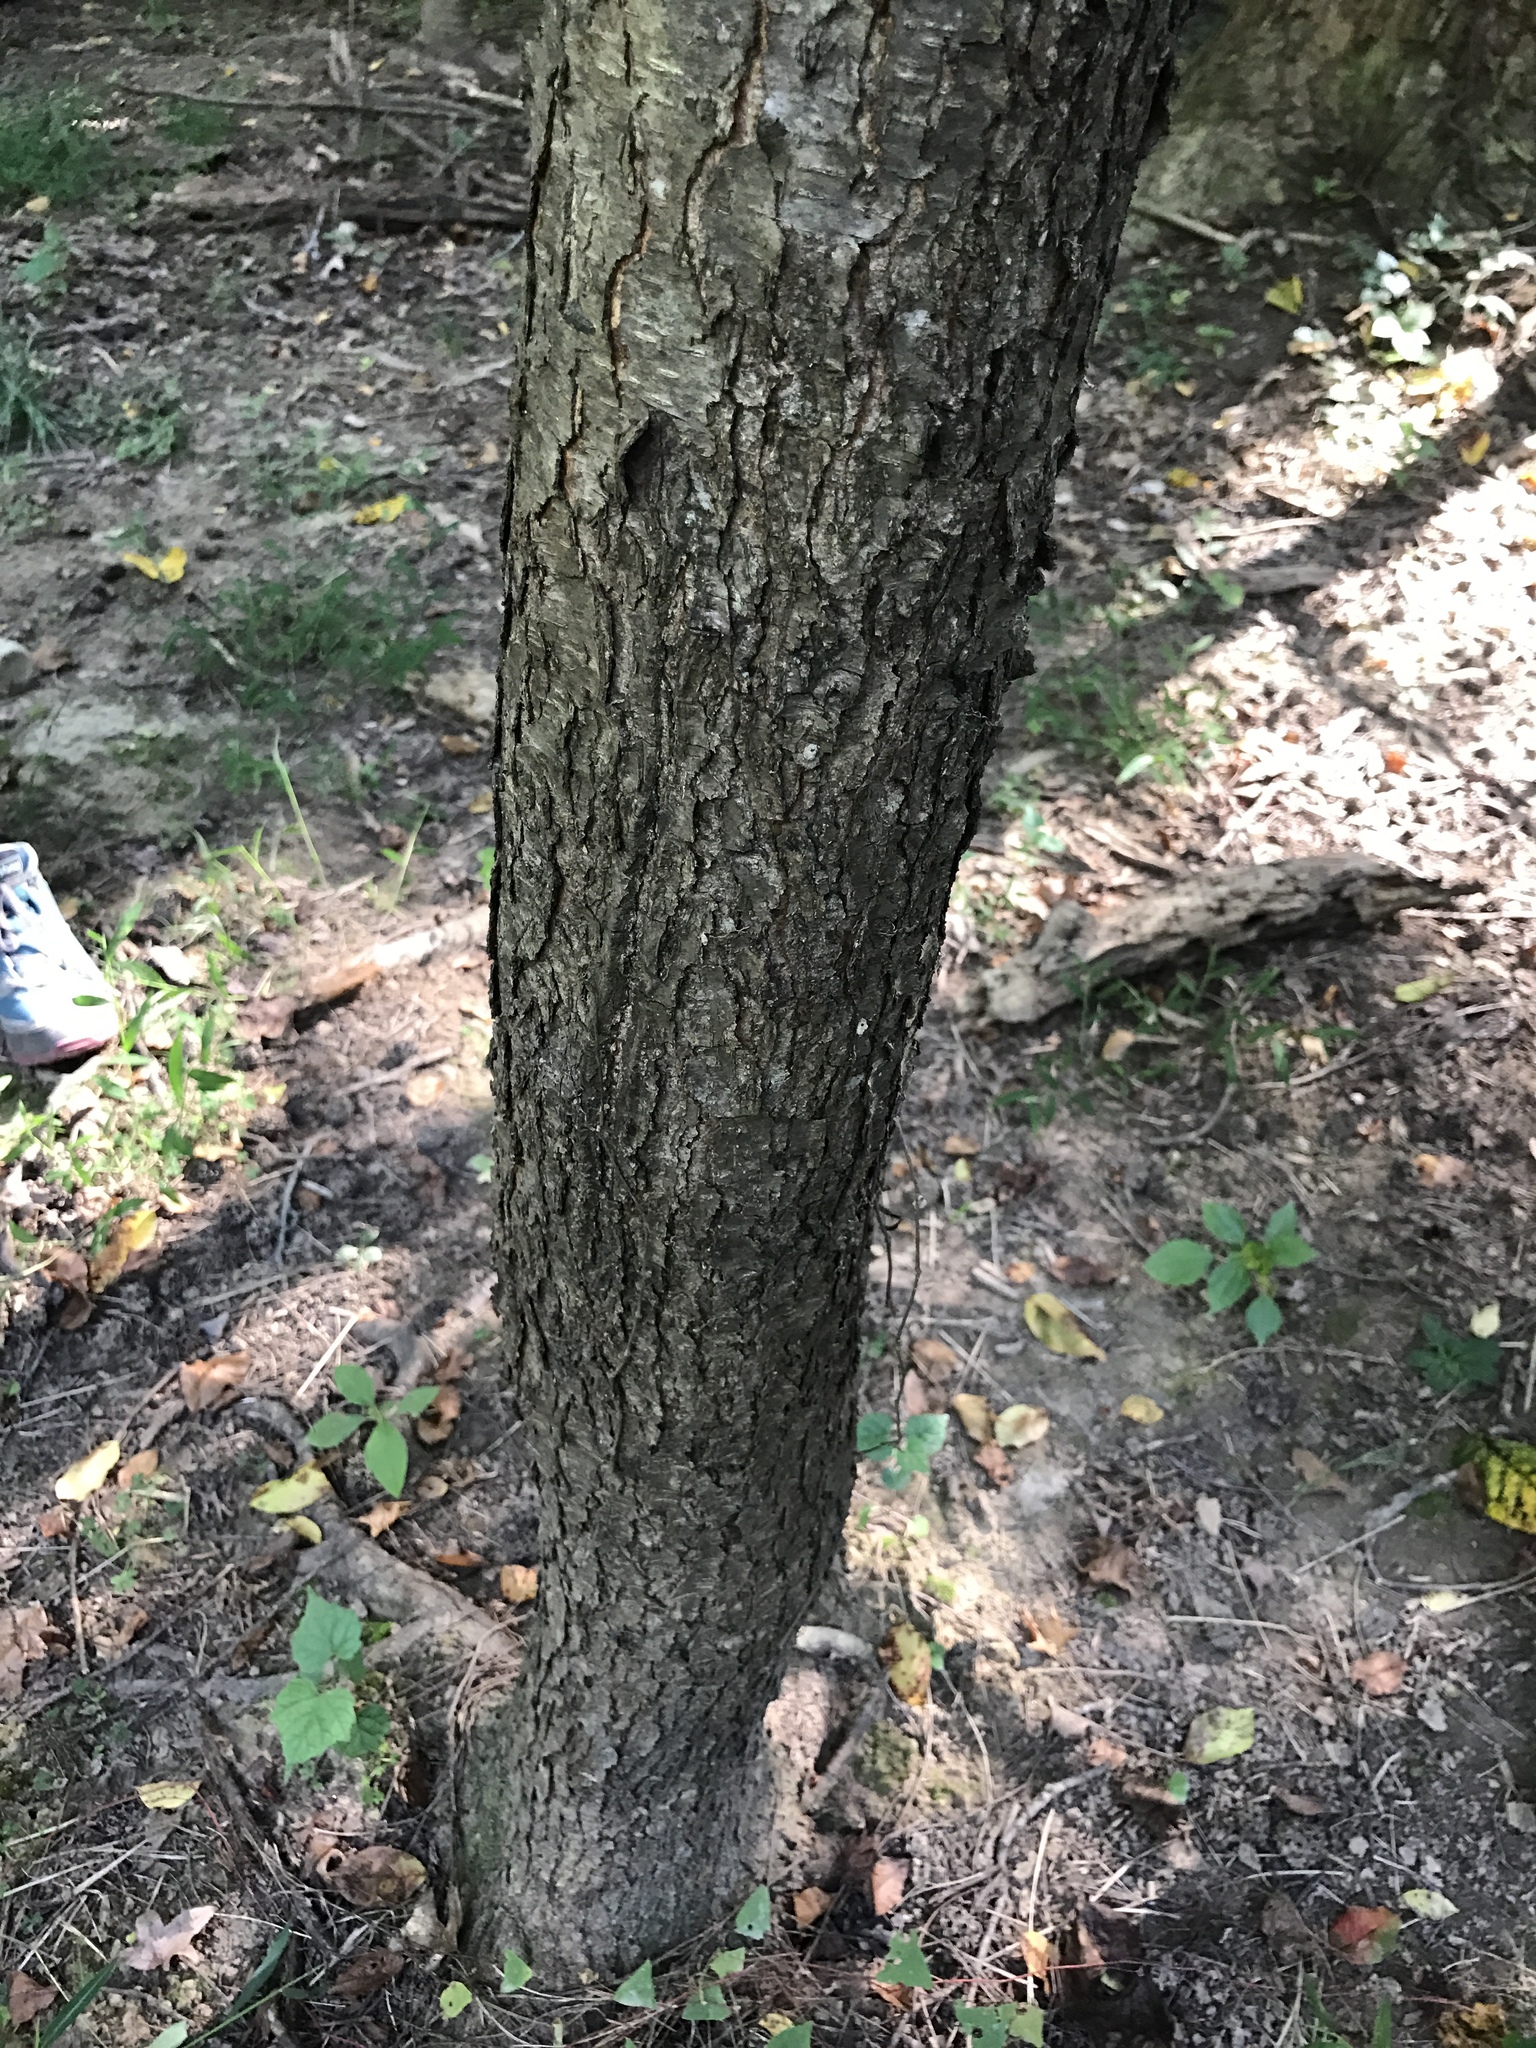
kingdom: Plantae
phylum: Tracheophyta
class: Magnoliopsida
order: Rosales
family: Rosaceae
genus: Prunus
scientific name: Prunus serotina
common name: Black cherry
